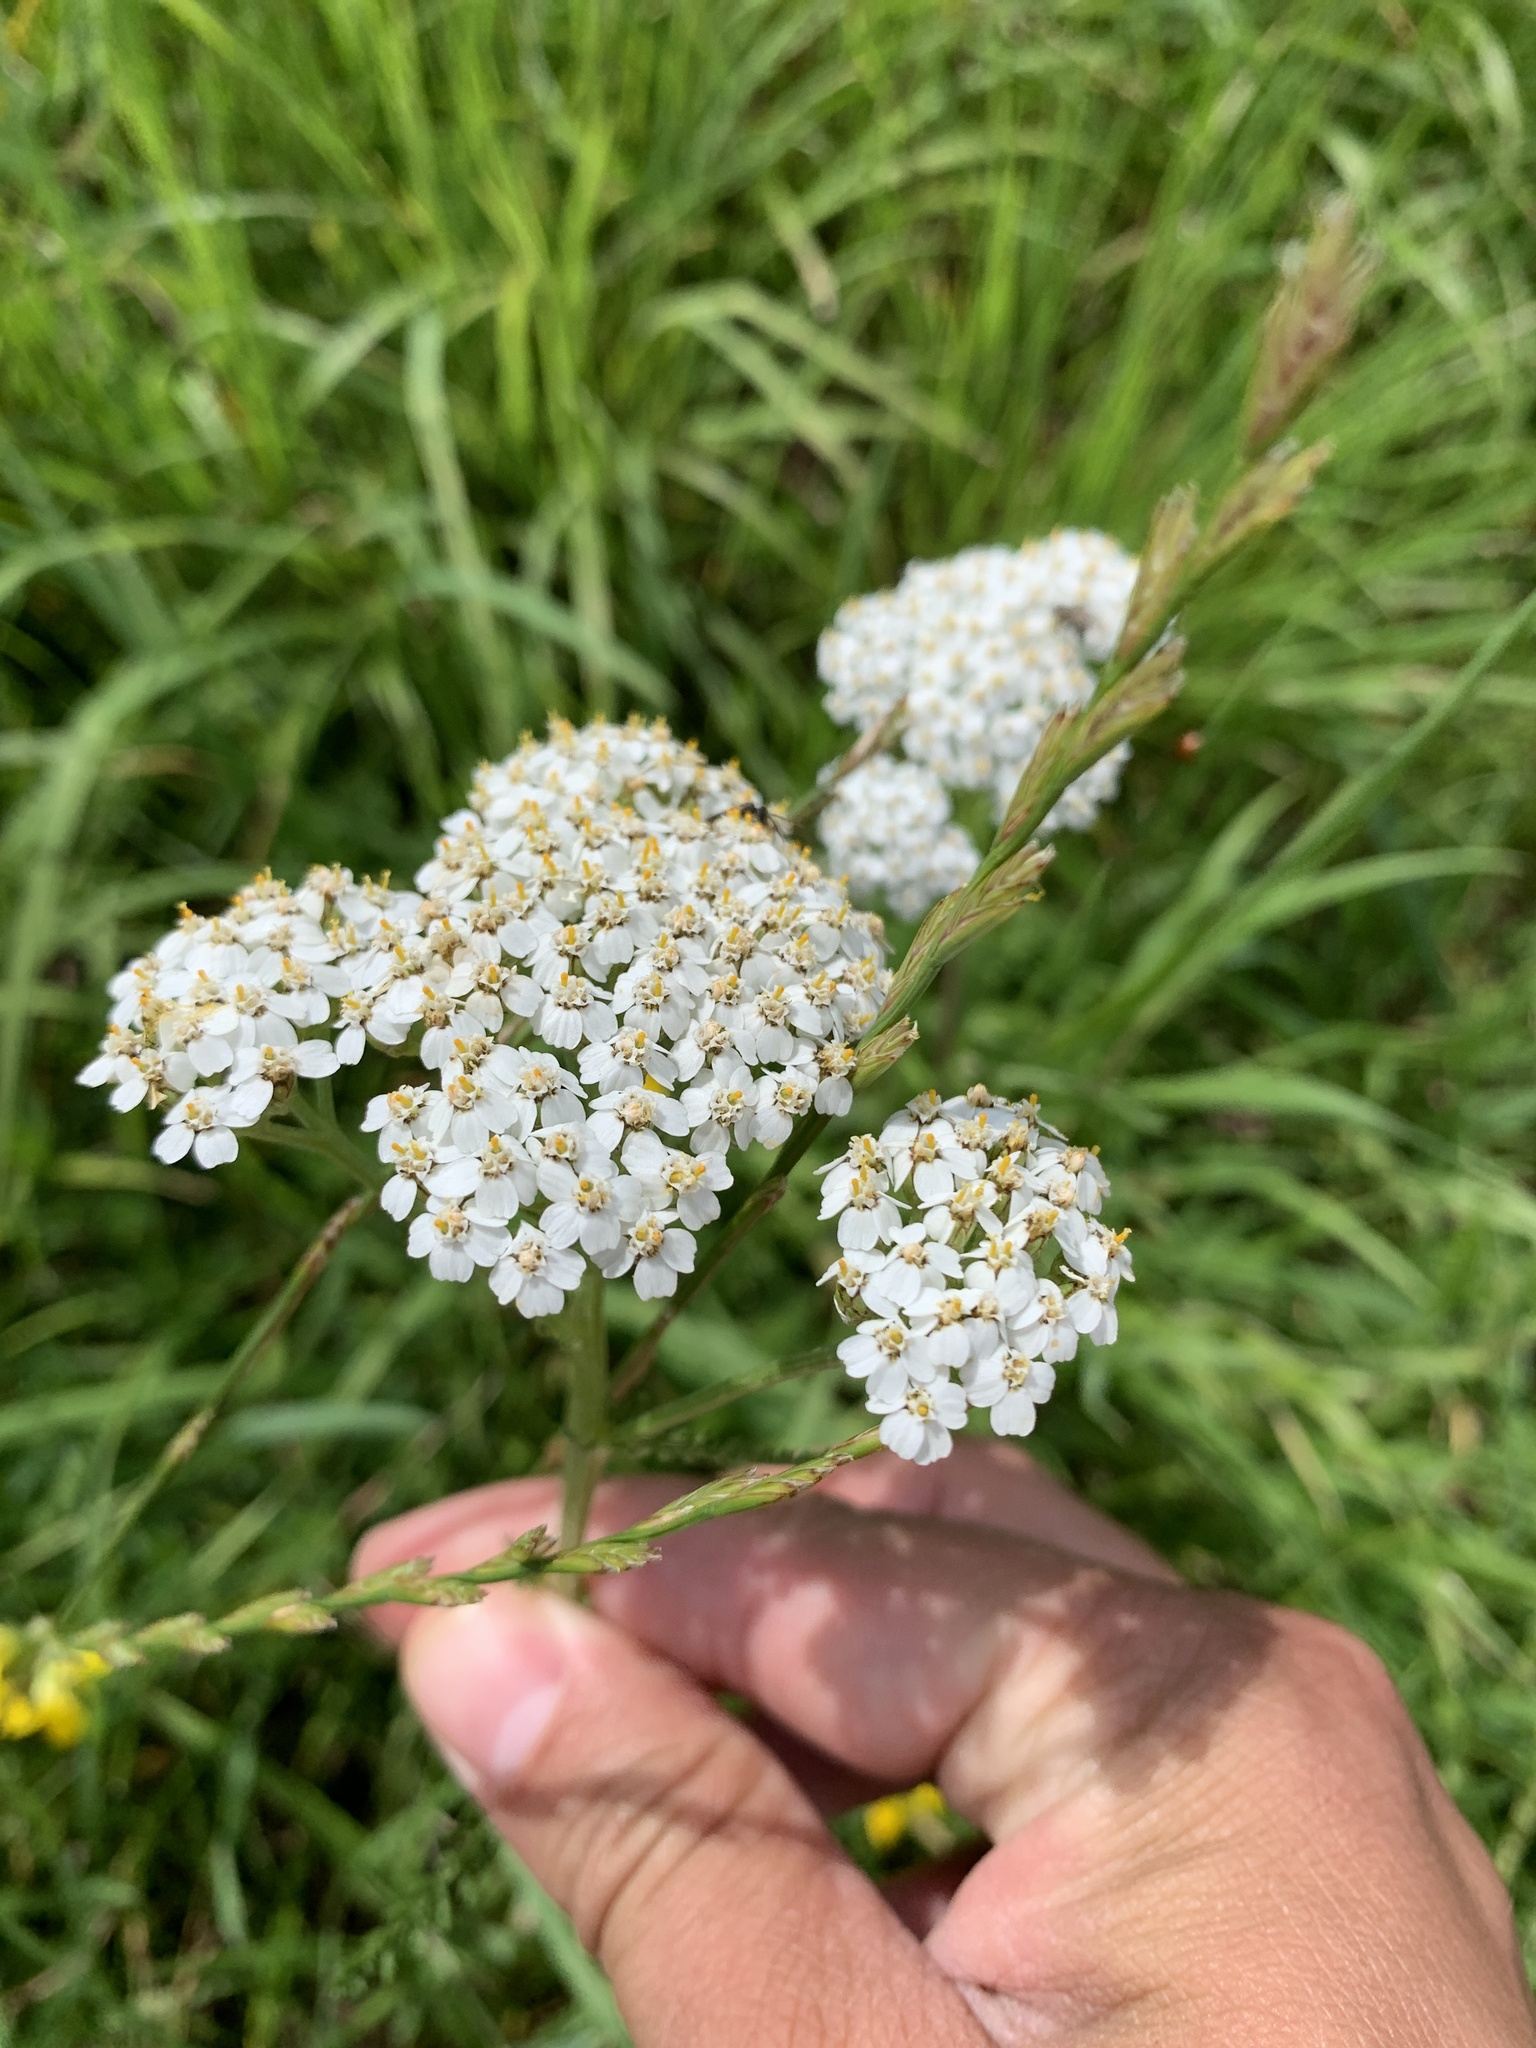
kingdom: Plantae
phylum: Tracheophyta
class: Magnoliopsida
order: Asterales
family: Asteraceae
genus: Achillea
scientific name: Achillea millefolium
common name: Yarrow
